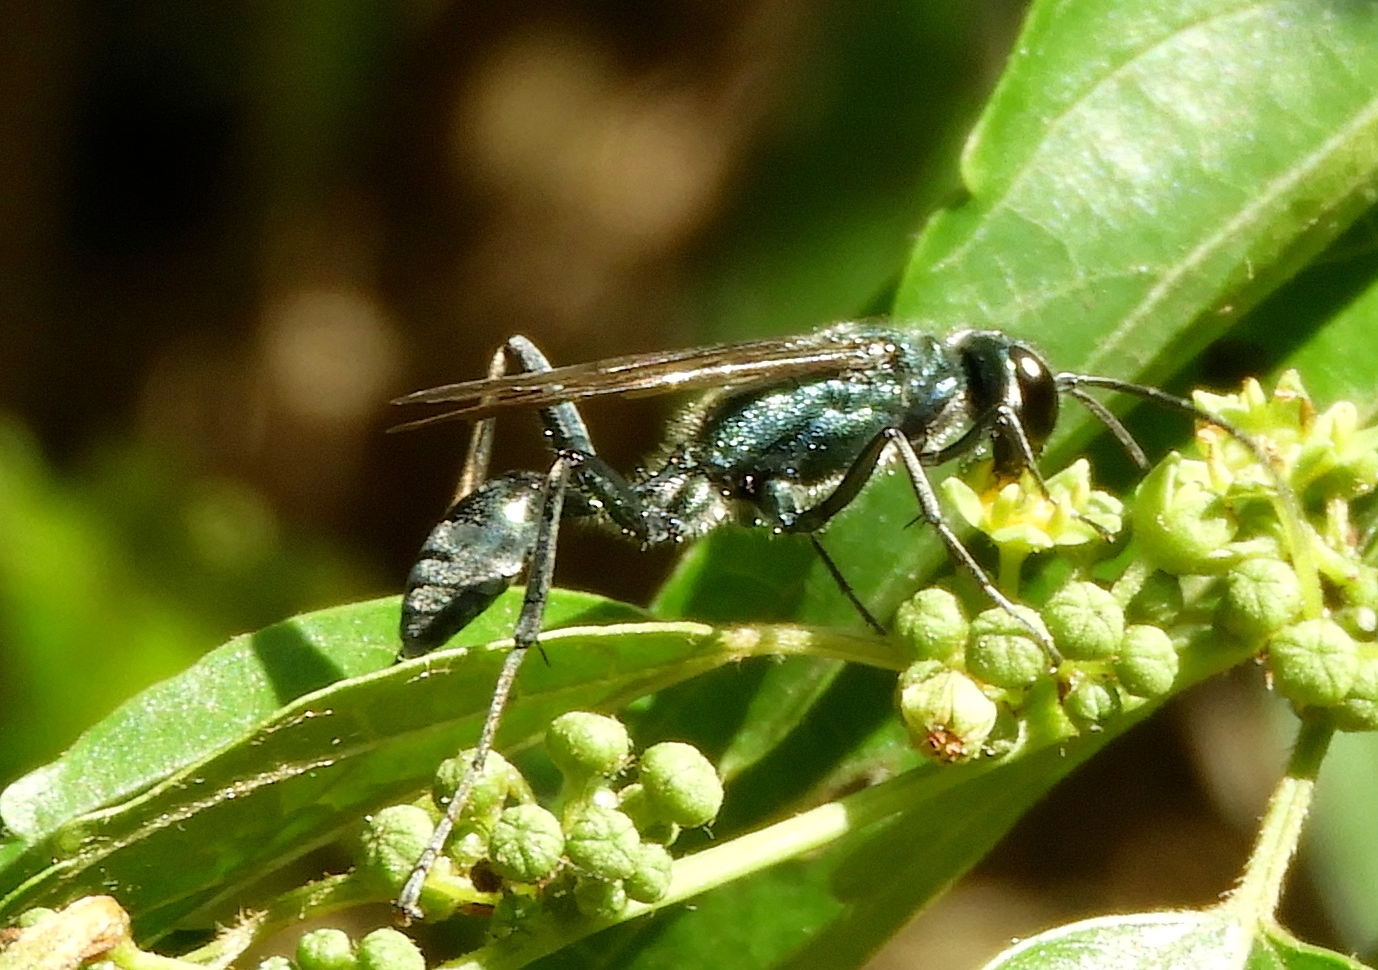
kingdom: Animalia
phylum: Arthropoda
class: Insecta
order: Hymenoptera
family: Sphecidae
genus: Chalybion
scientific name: Chalybion zimmermanni
